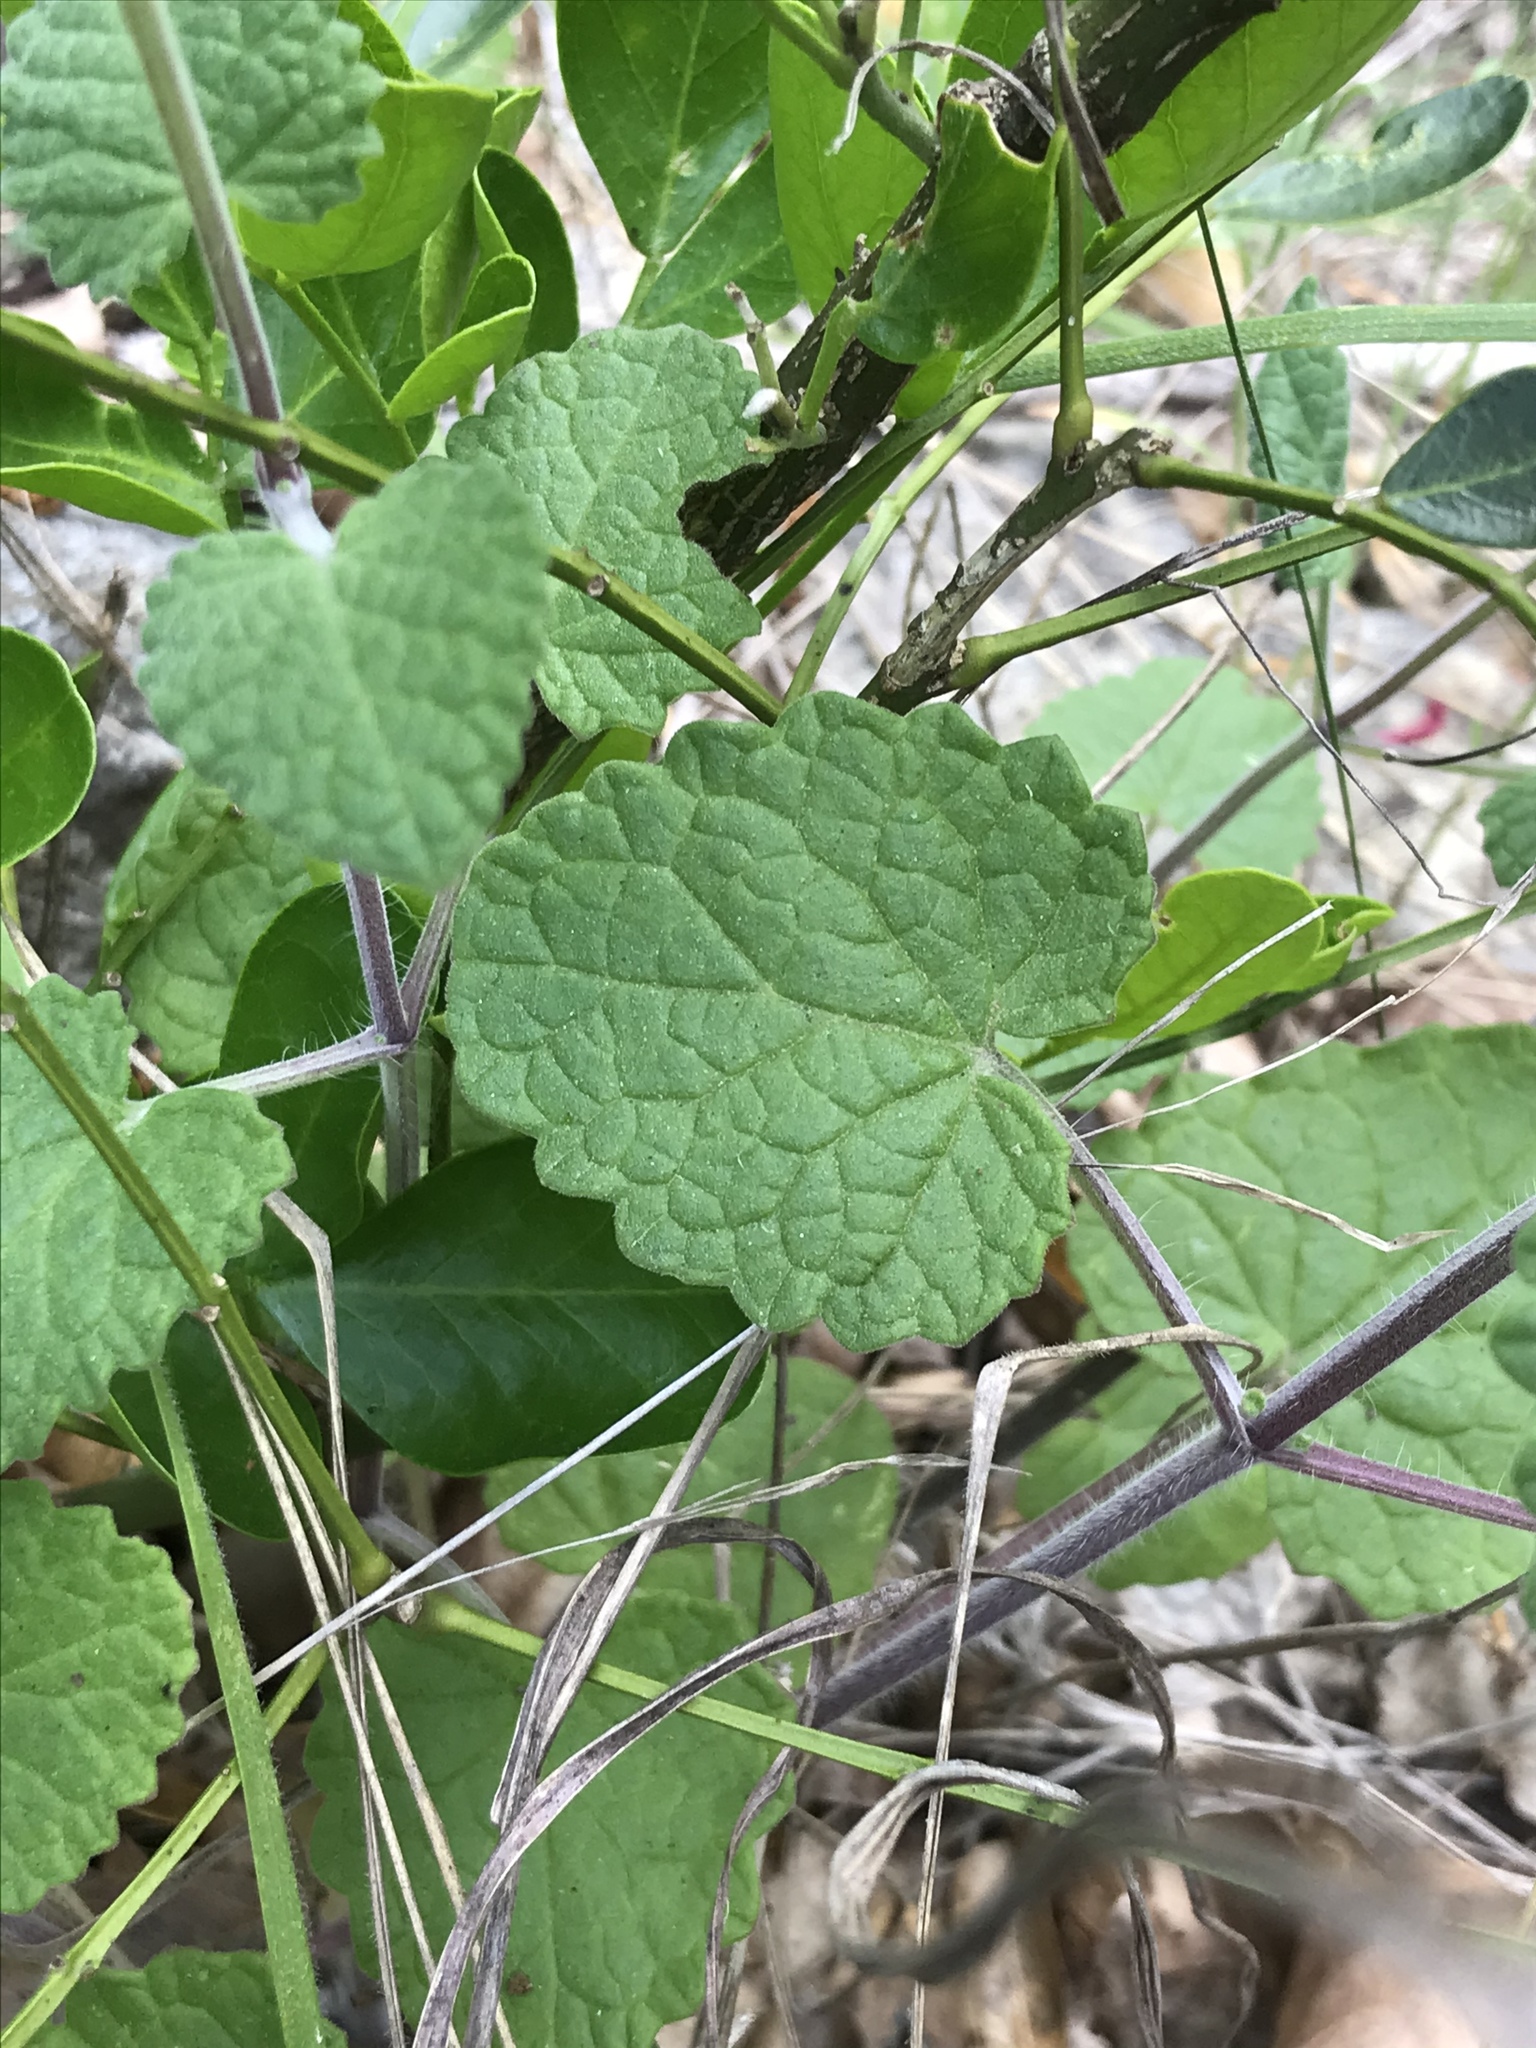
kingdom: Plantae
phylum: Tracheophyta
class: Magnoliopsida
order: Lamiales
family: Lamiaceae
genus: Salvia
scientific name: Salvia roemeriana
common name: Cedar sage
